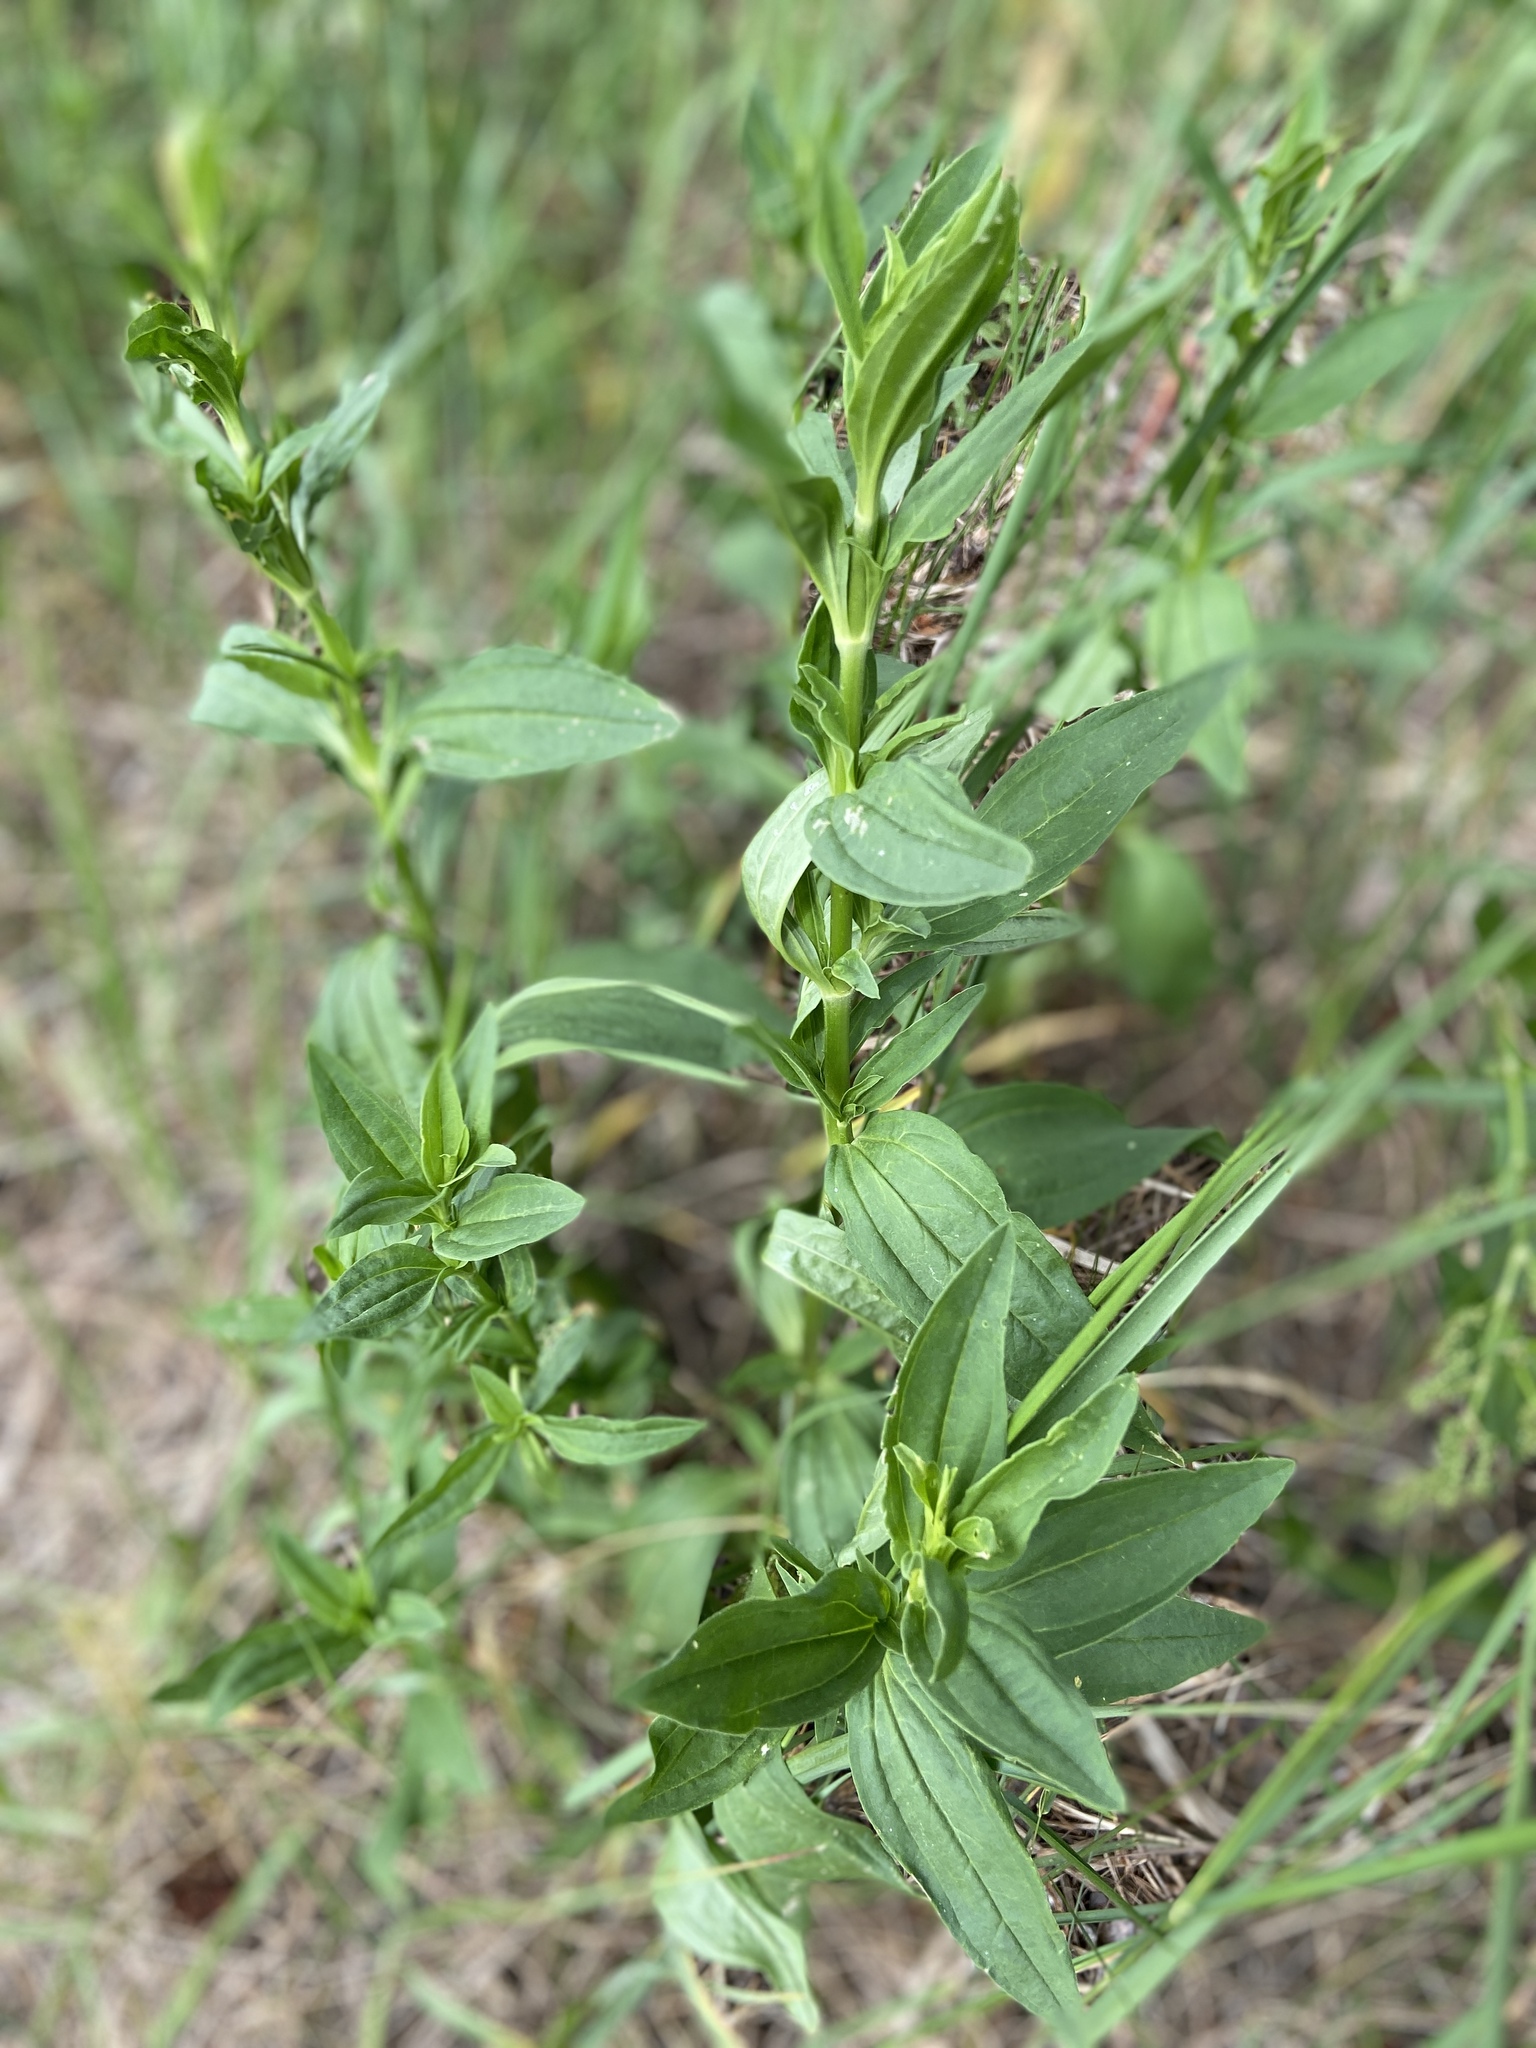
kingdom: Plantae
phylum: Tracheophyta
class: Magnoliopsida
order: Caryophyllales
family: Caryophyllaceae
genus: Saponaria
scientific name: Saponaria officinalis
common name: Soapwort
